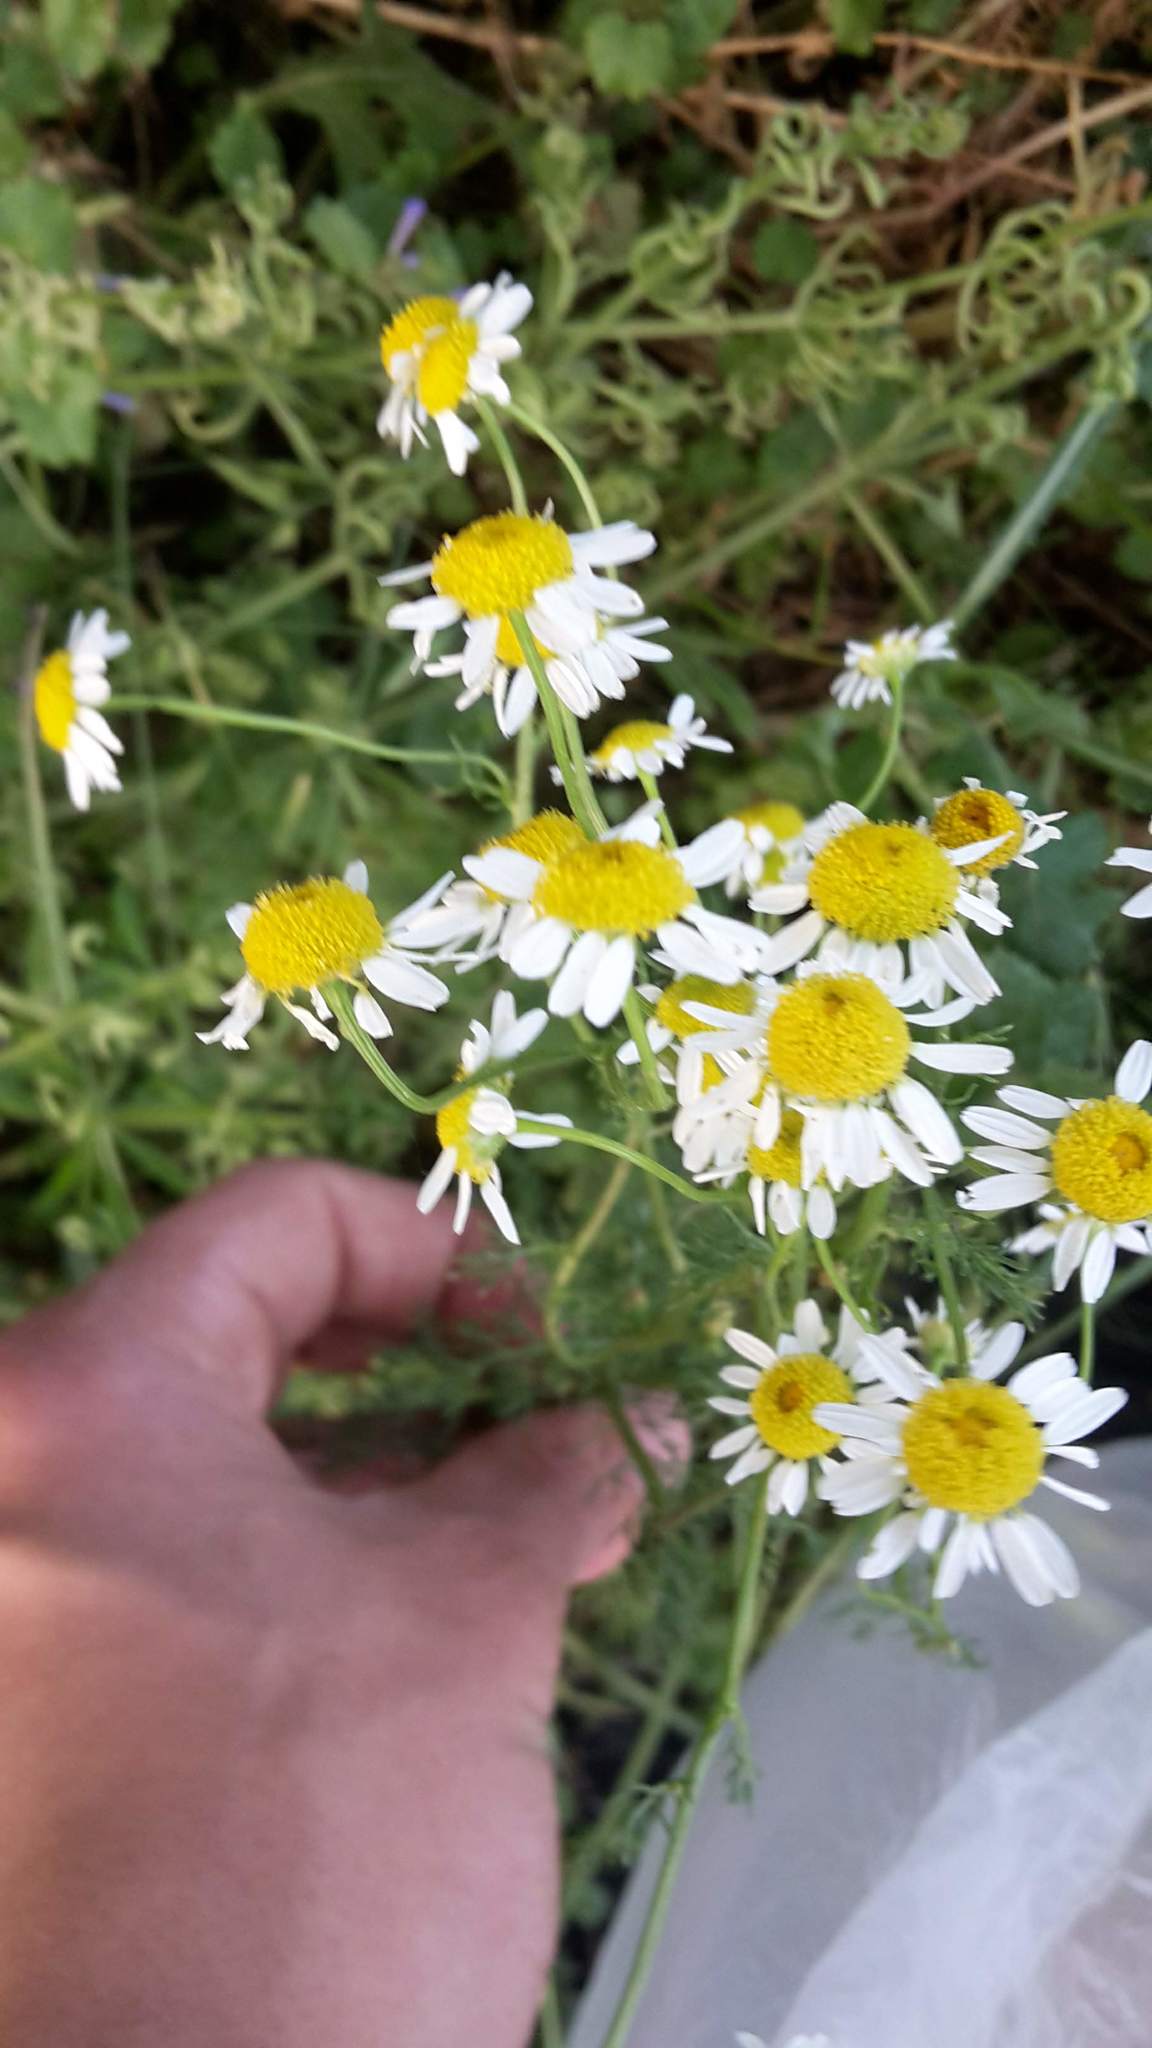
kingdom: Plantae
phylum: Tracheophyta
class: Magnoliopsida
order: Asterales
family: Asteraceae
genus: Matricaria
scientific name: Matricaria chamomilla
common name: Scented mayweed
